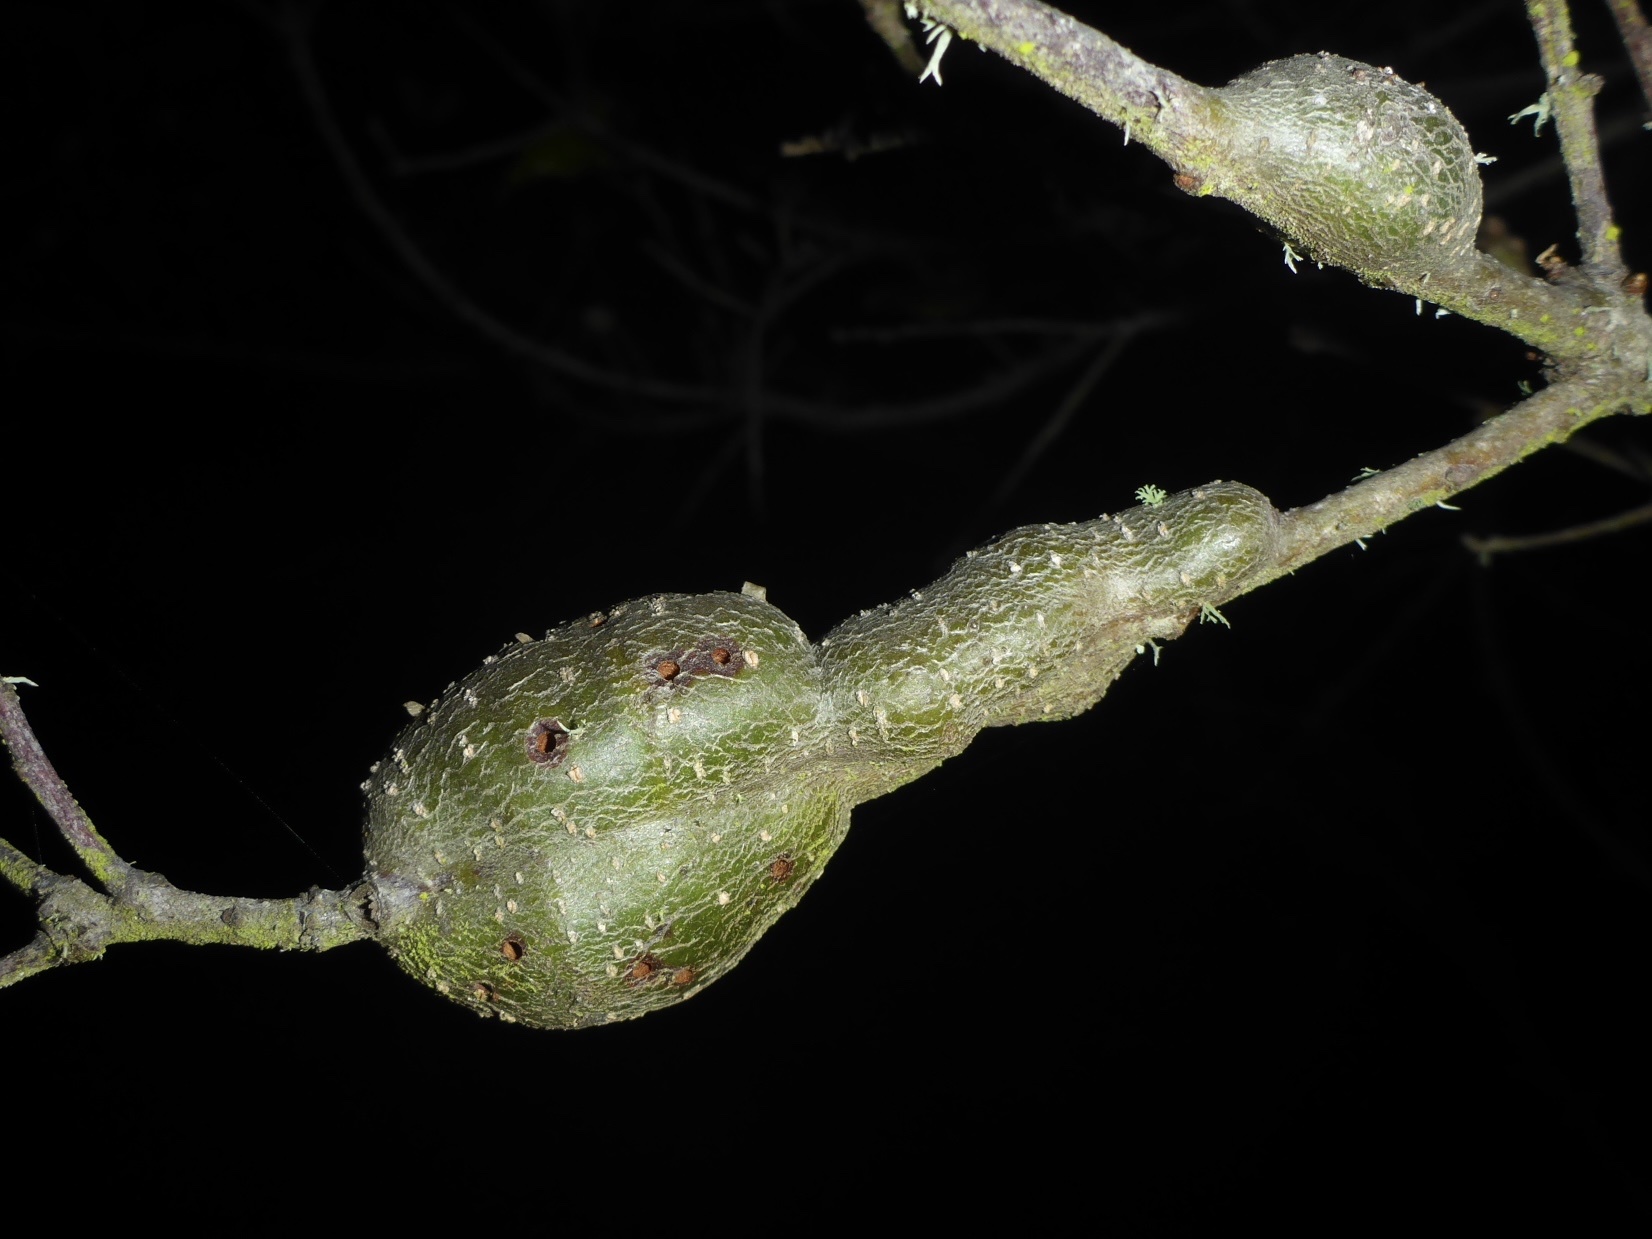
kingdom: Animalia
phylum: Arthropoda
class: Insecta
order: Hymenoptera
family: Cynipidae
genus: Callirhytis
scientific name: Callirhytis
